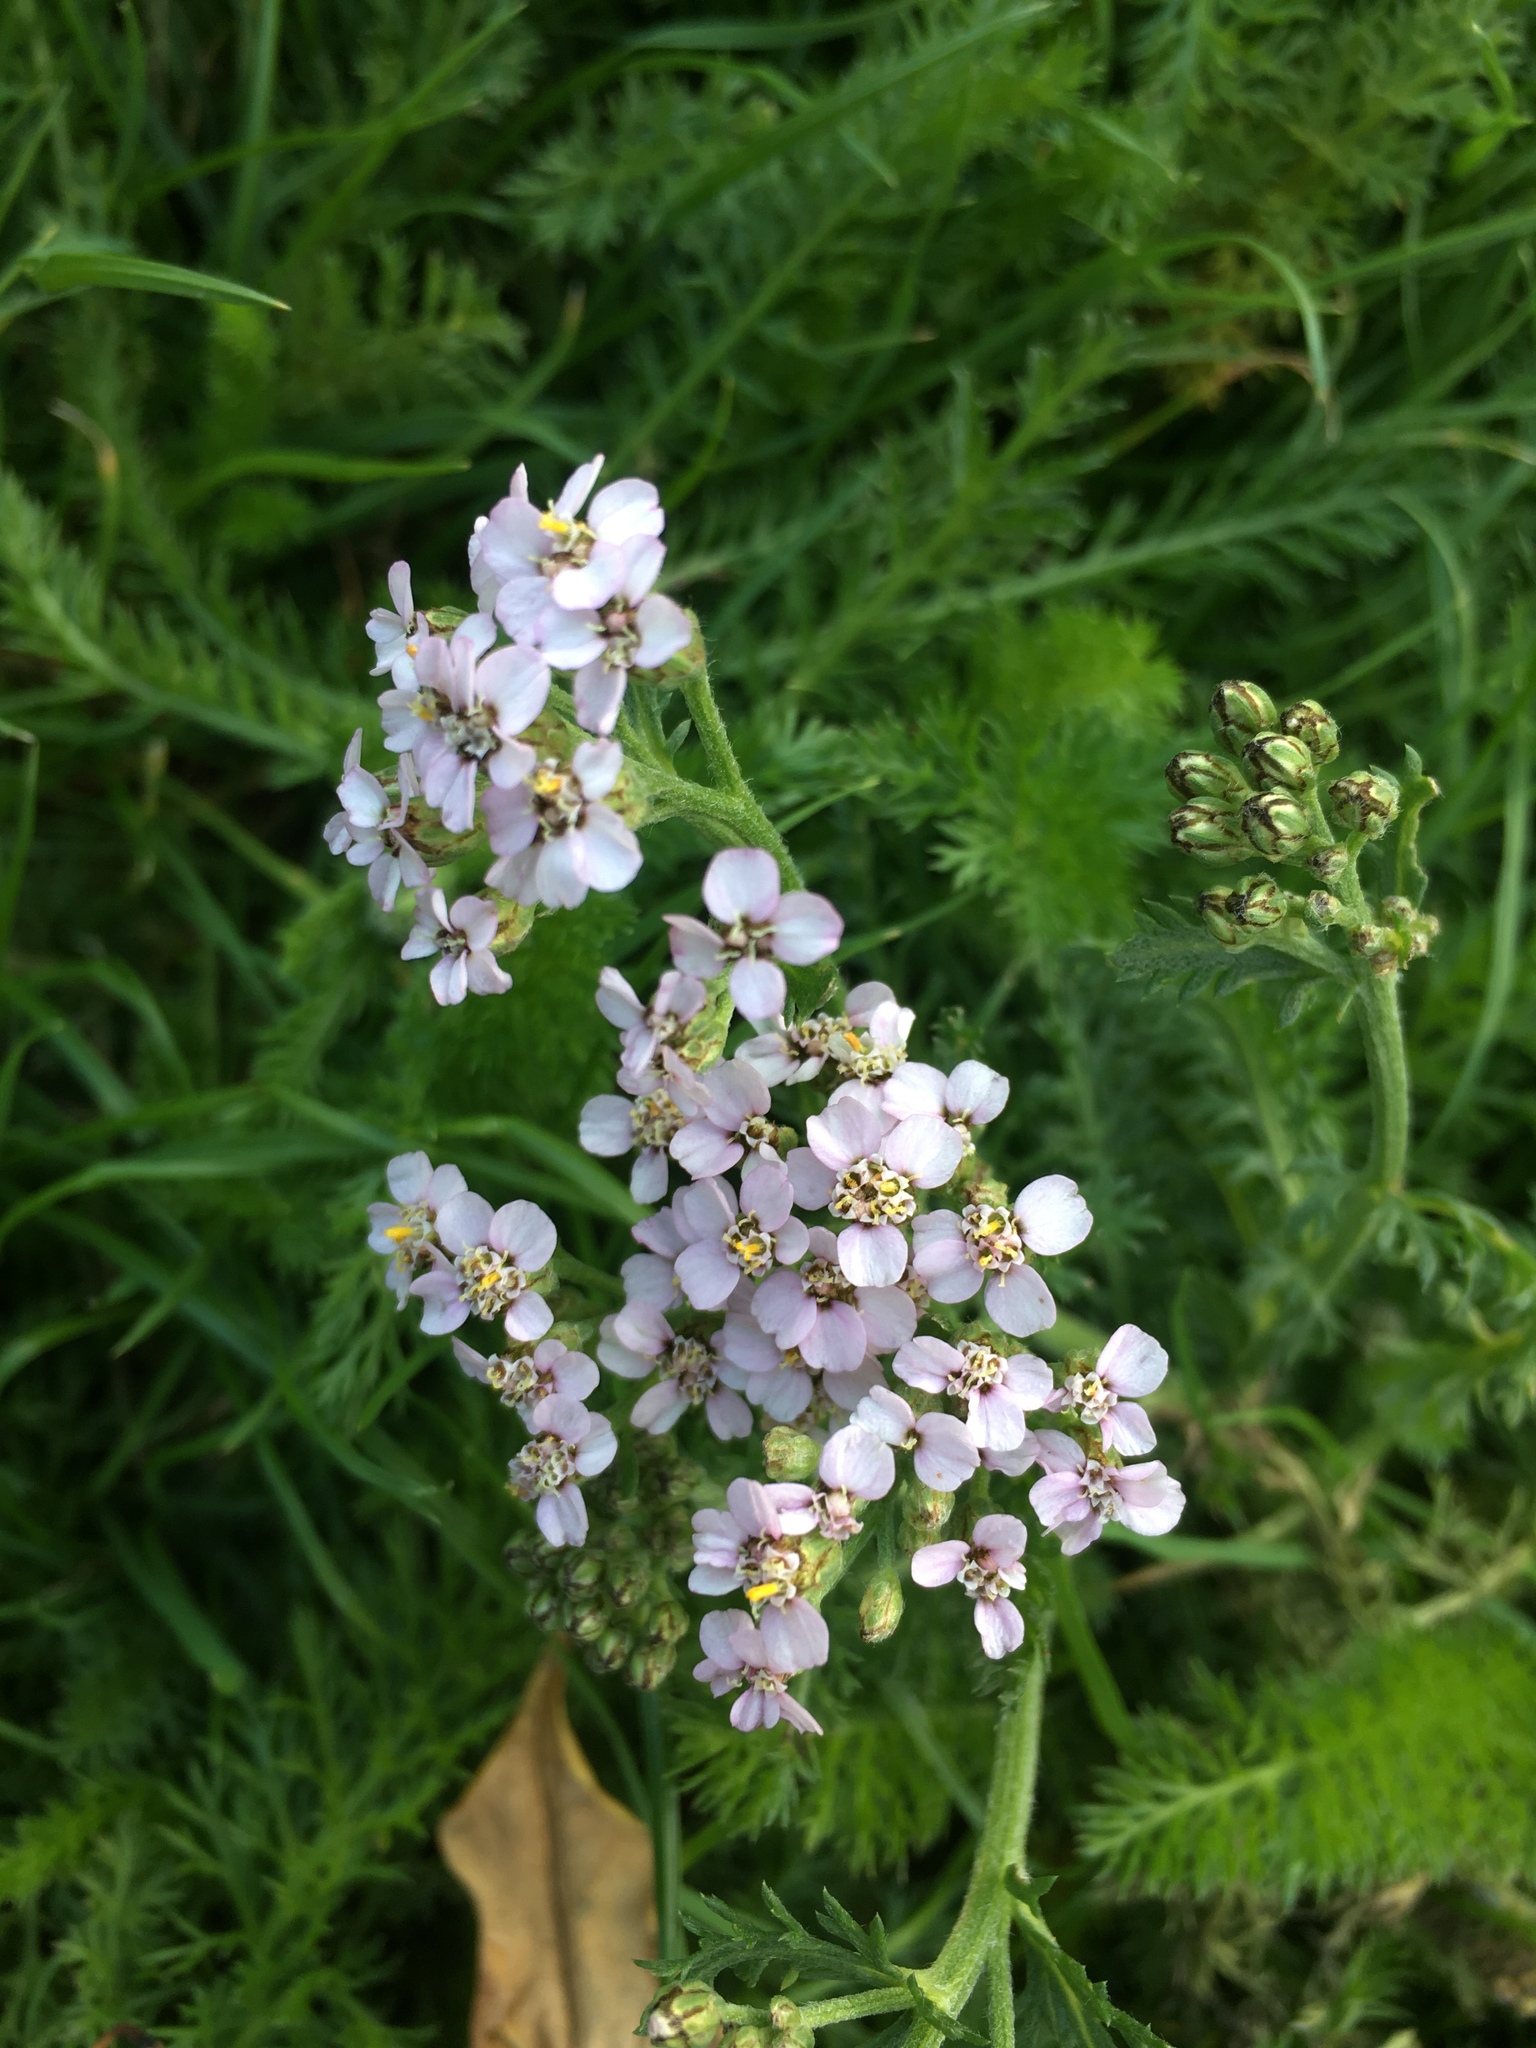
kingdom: Plantae
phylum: Tracheophyta
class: Magnoliopsida
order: Asterales
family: Asteraceae
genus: Achillea
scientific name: Achillea millefolium
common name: Yarrow
